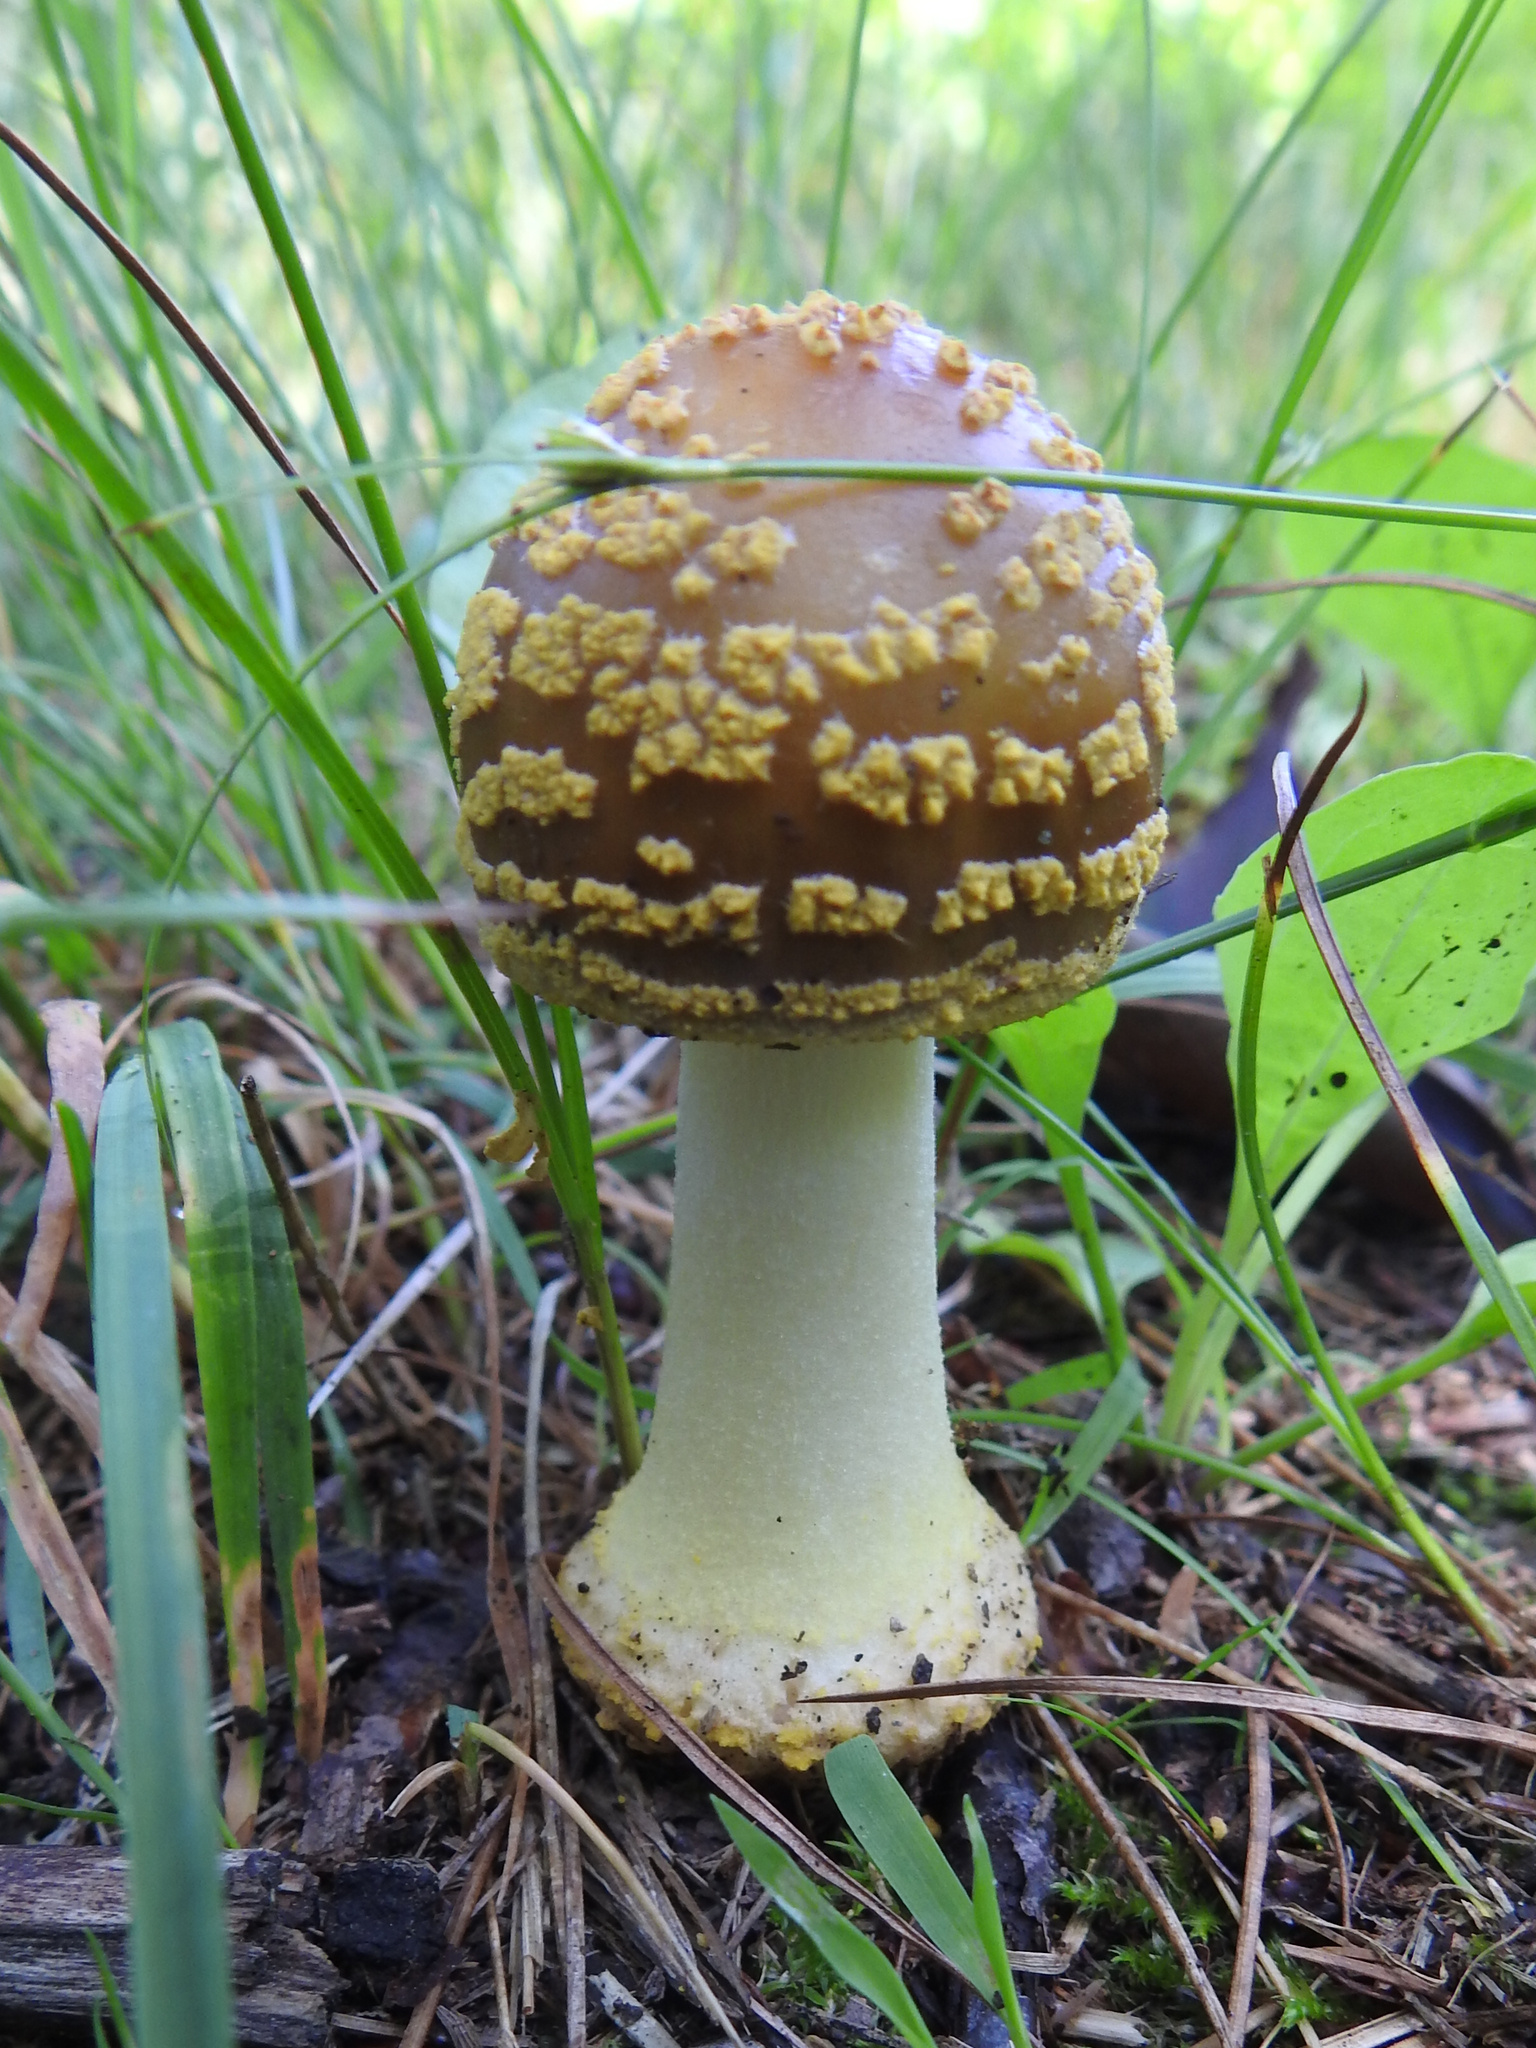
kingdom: Fungi
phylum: Basidiomycota
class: Agaricomycetes
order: Agaricales
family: Amanitaceae
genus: Amanita
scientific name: Amanita flavorubens
